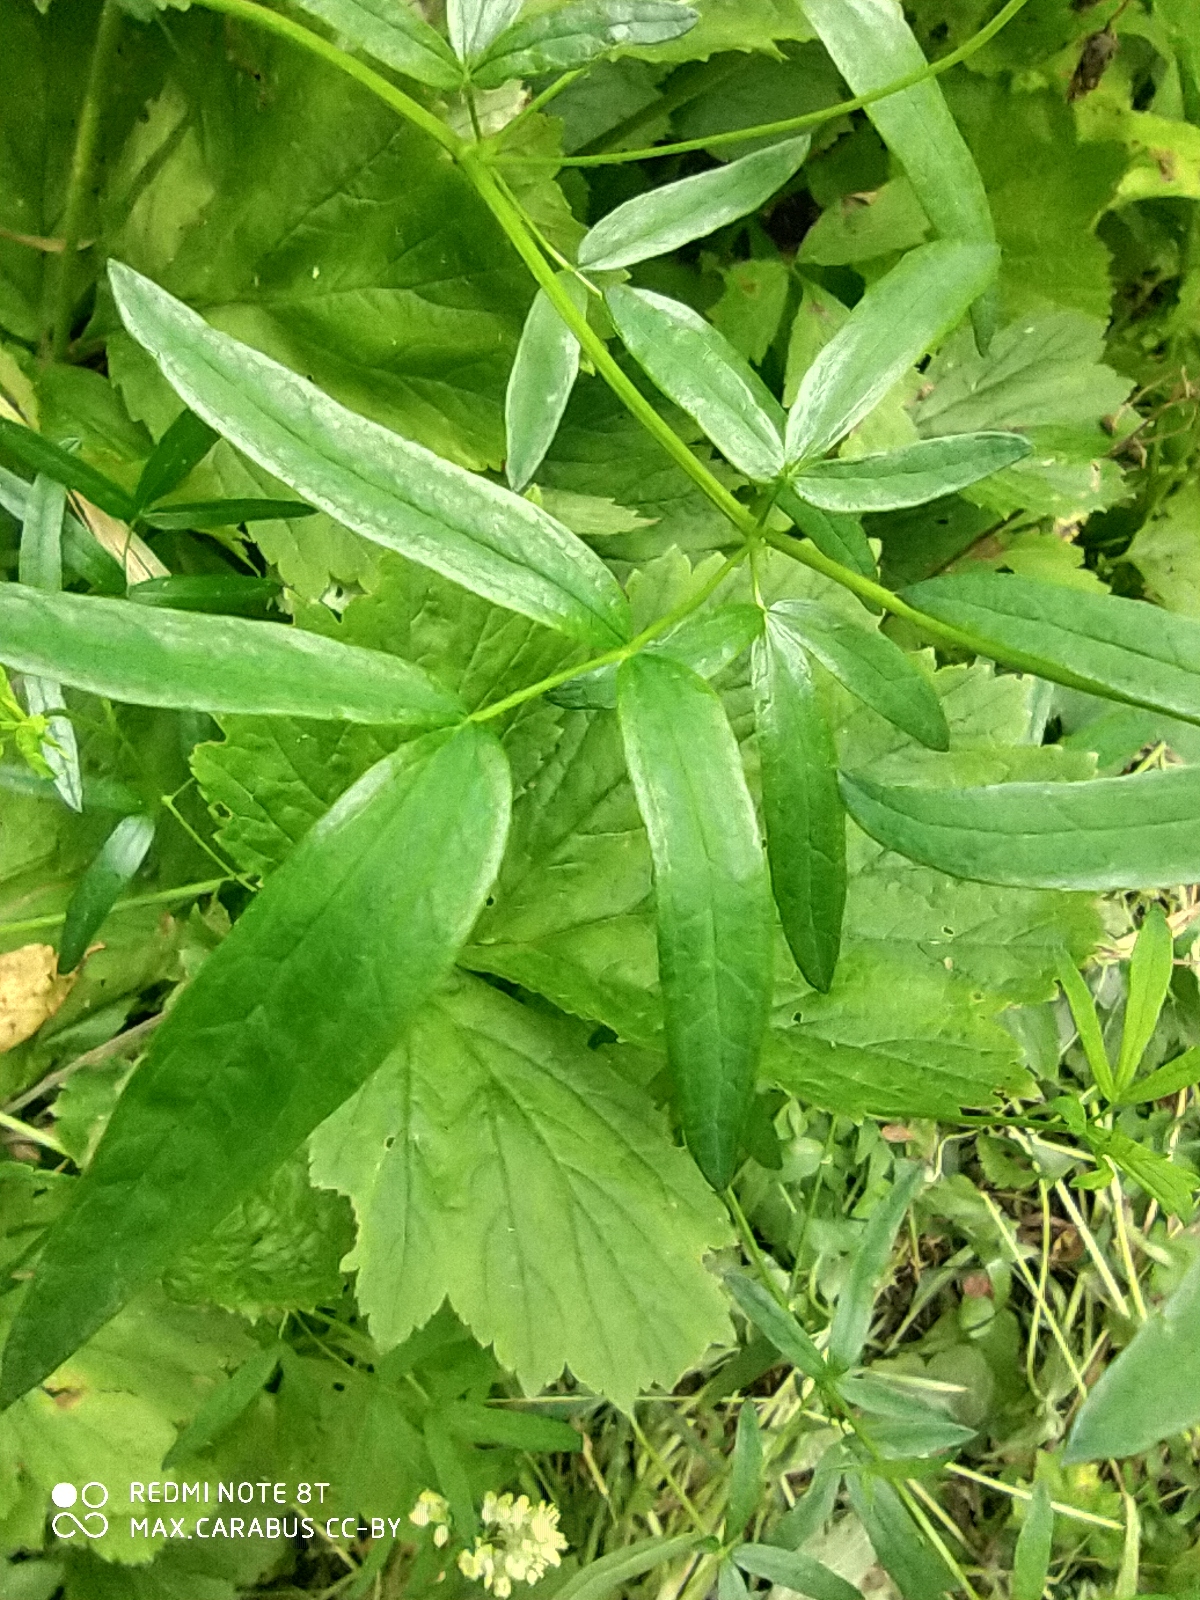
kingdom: Plantae
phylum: Tracheophyta
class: Magnoliopsida
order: Ranunculales
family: Ranunculaceae
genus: Thalictrum
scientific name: Thalictrum flavum
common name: Common meadow-rue
